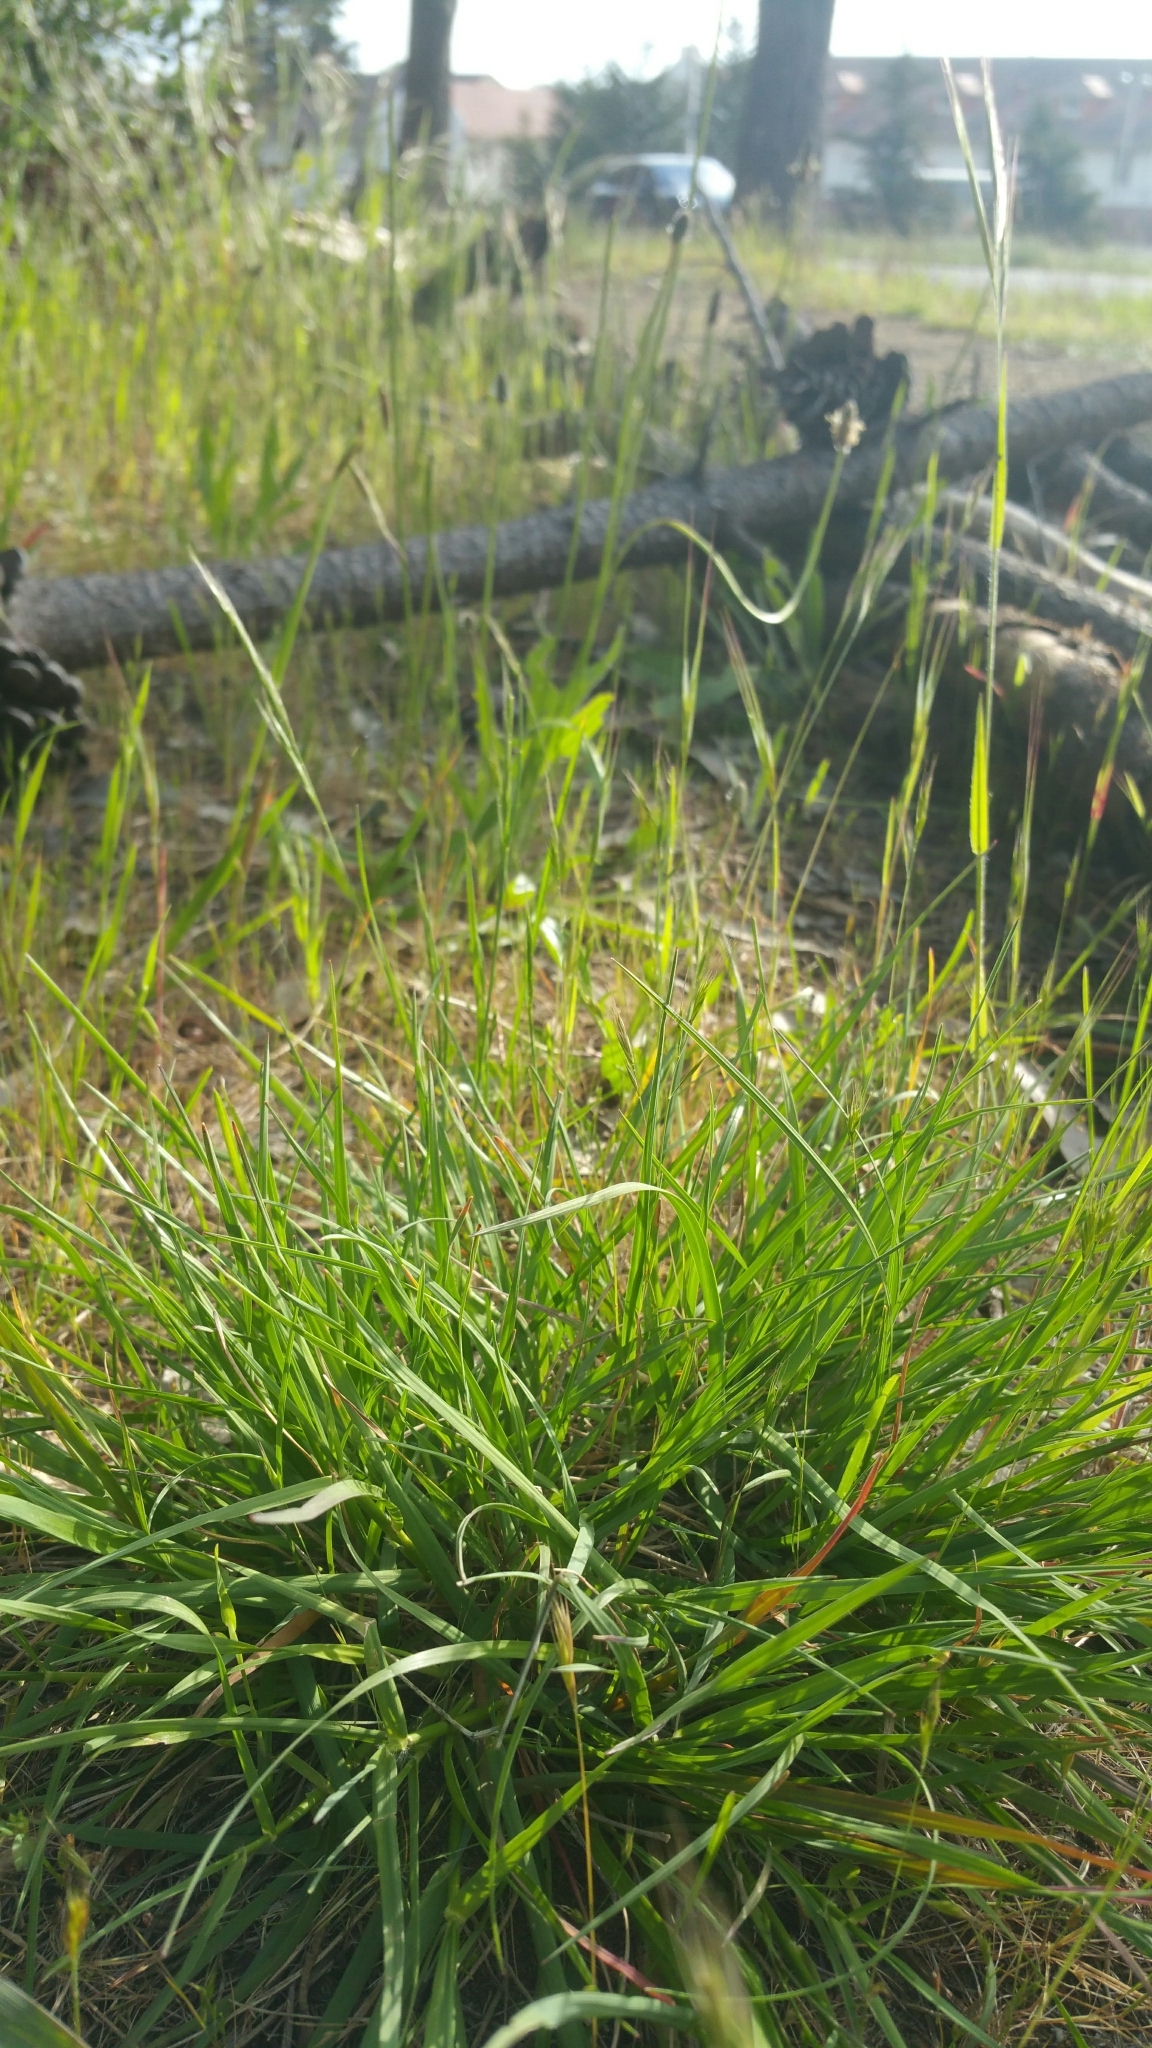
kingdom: Plantae
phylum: Tracheophyta
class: Liliopsida
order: Poales
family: Poaceae
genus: Danthonia
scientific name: Danthonia californica
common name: California oat grass
